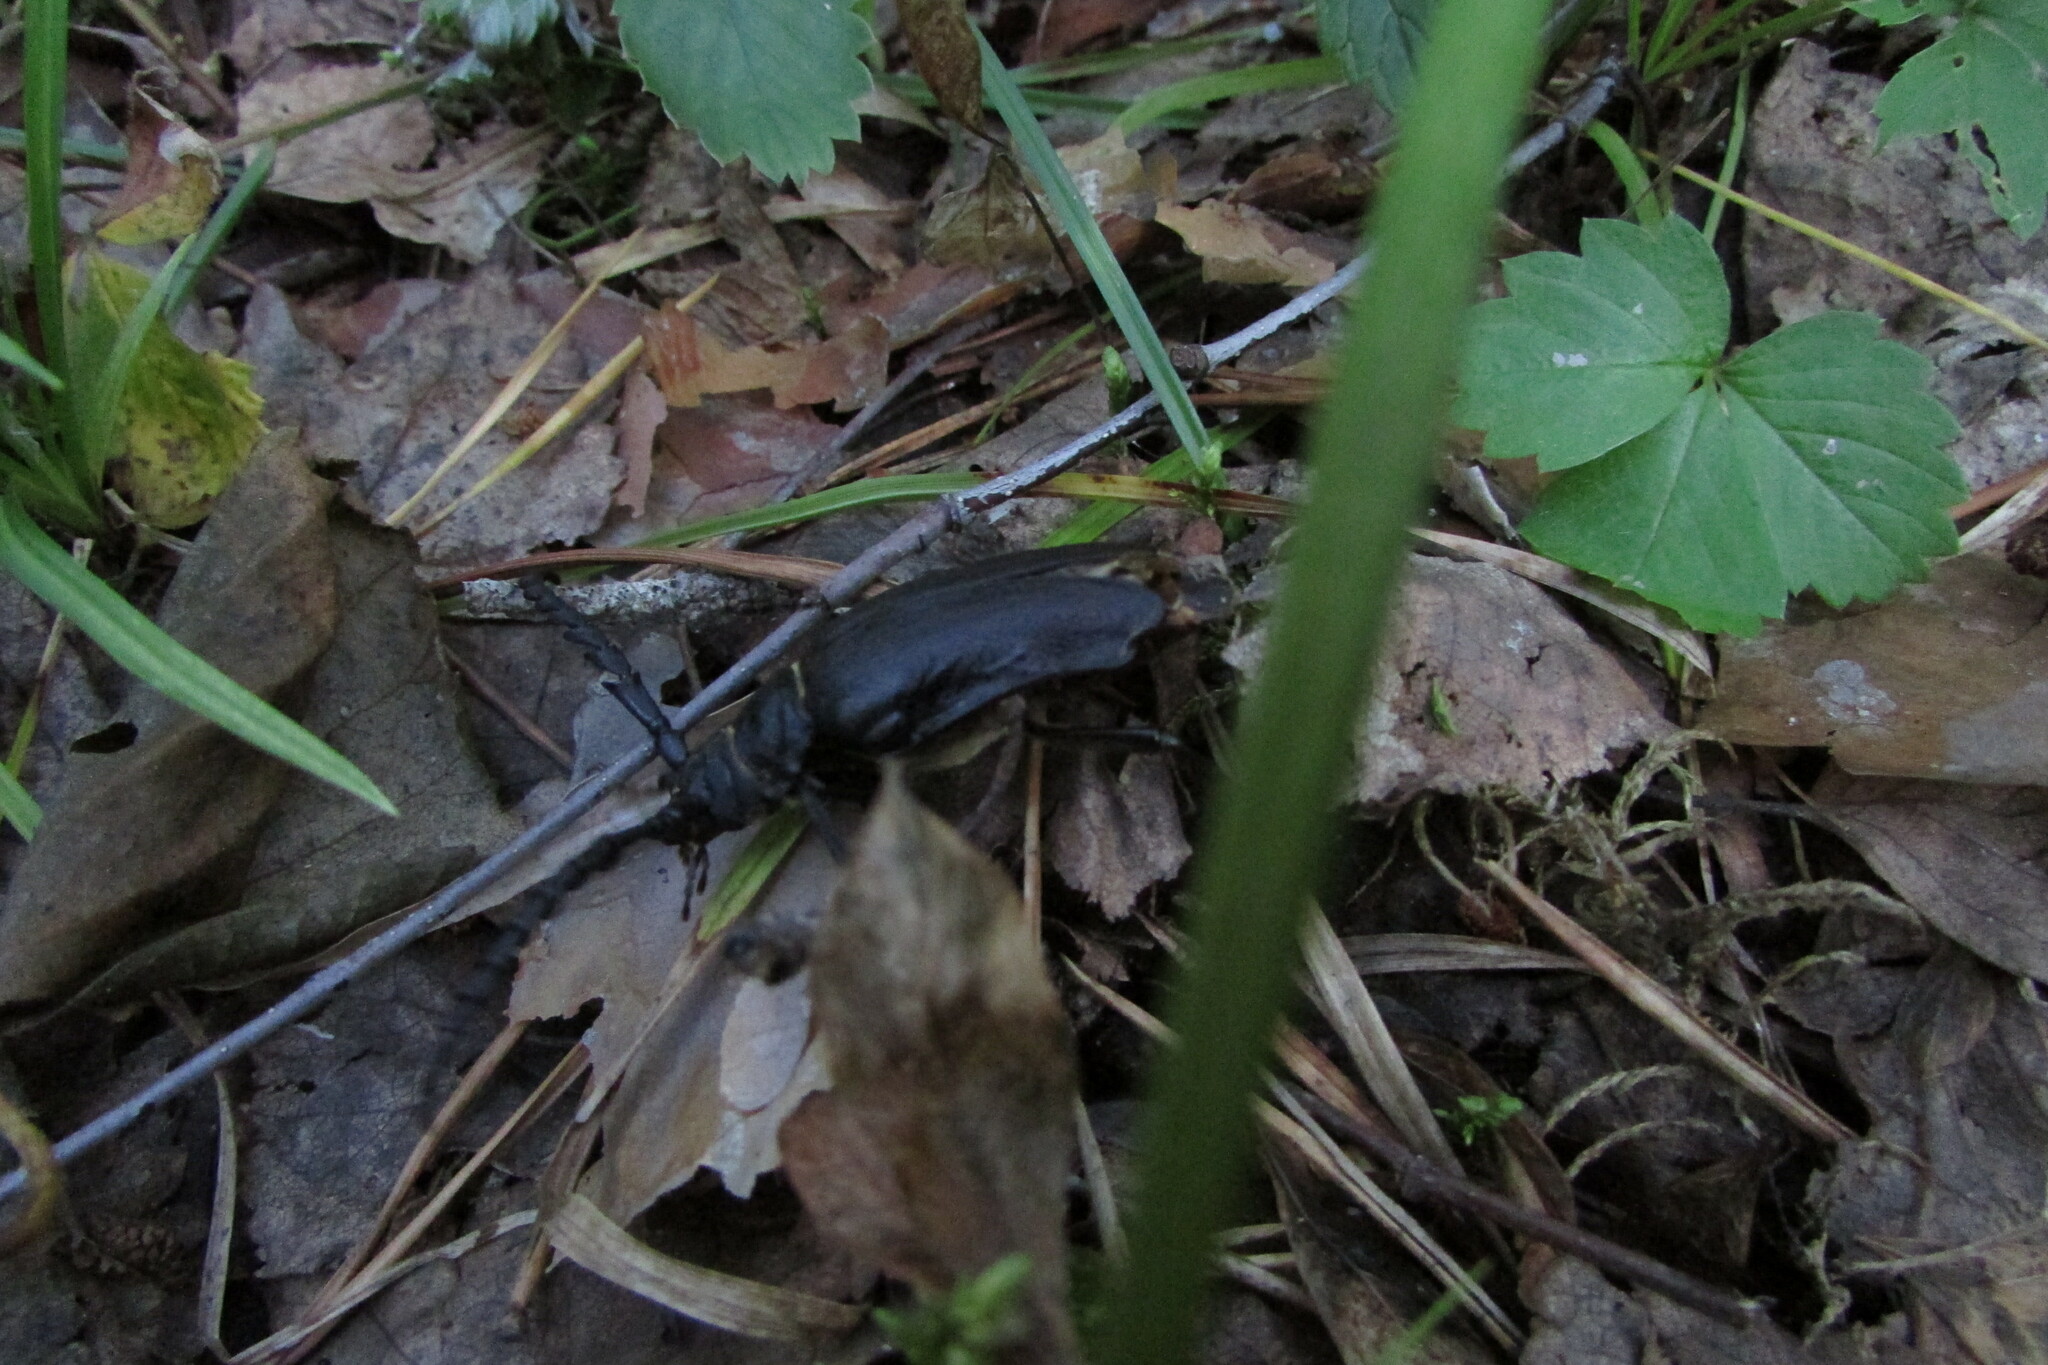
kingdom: Animalia
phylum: Arthropoda
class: Insecta
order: Coleoptera
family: Cerambycidae
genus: Prionus
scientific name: Prionus coriarius
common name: Tanner beetle
